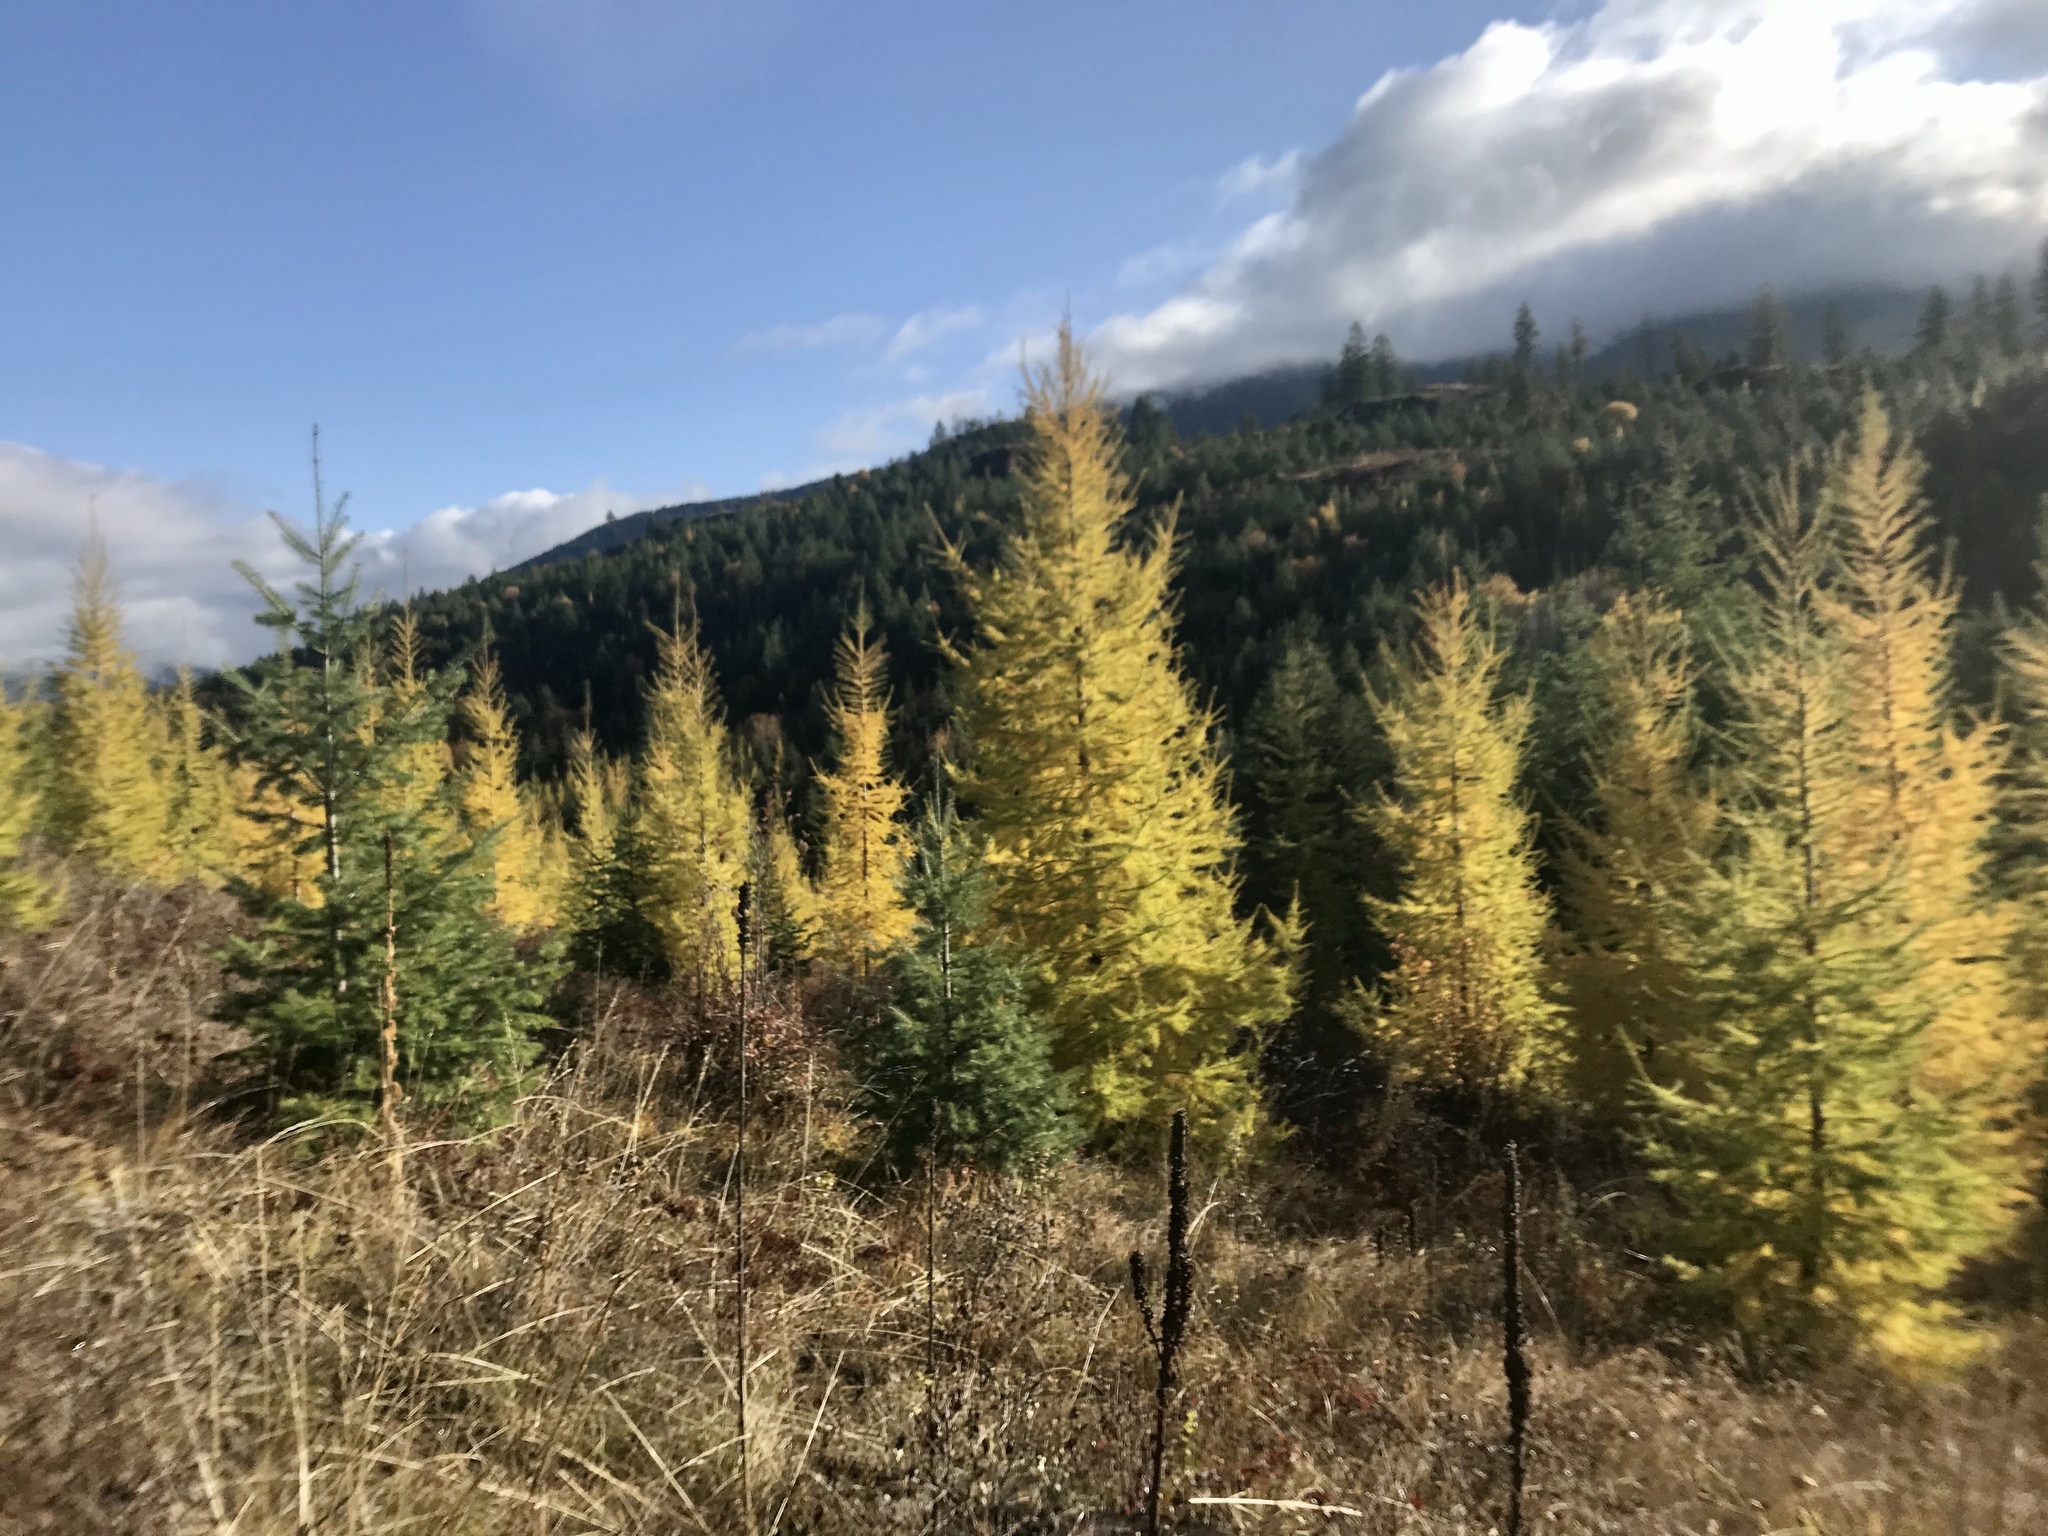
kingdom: Plantae
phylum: Tracheophyta
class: Pinopsida
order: Pinales
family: Pinaceae
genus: Larix
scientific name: Larix occidentalis
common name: Western larch
